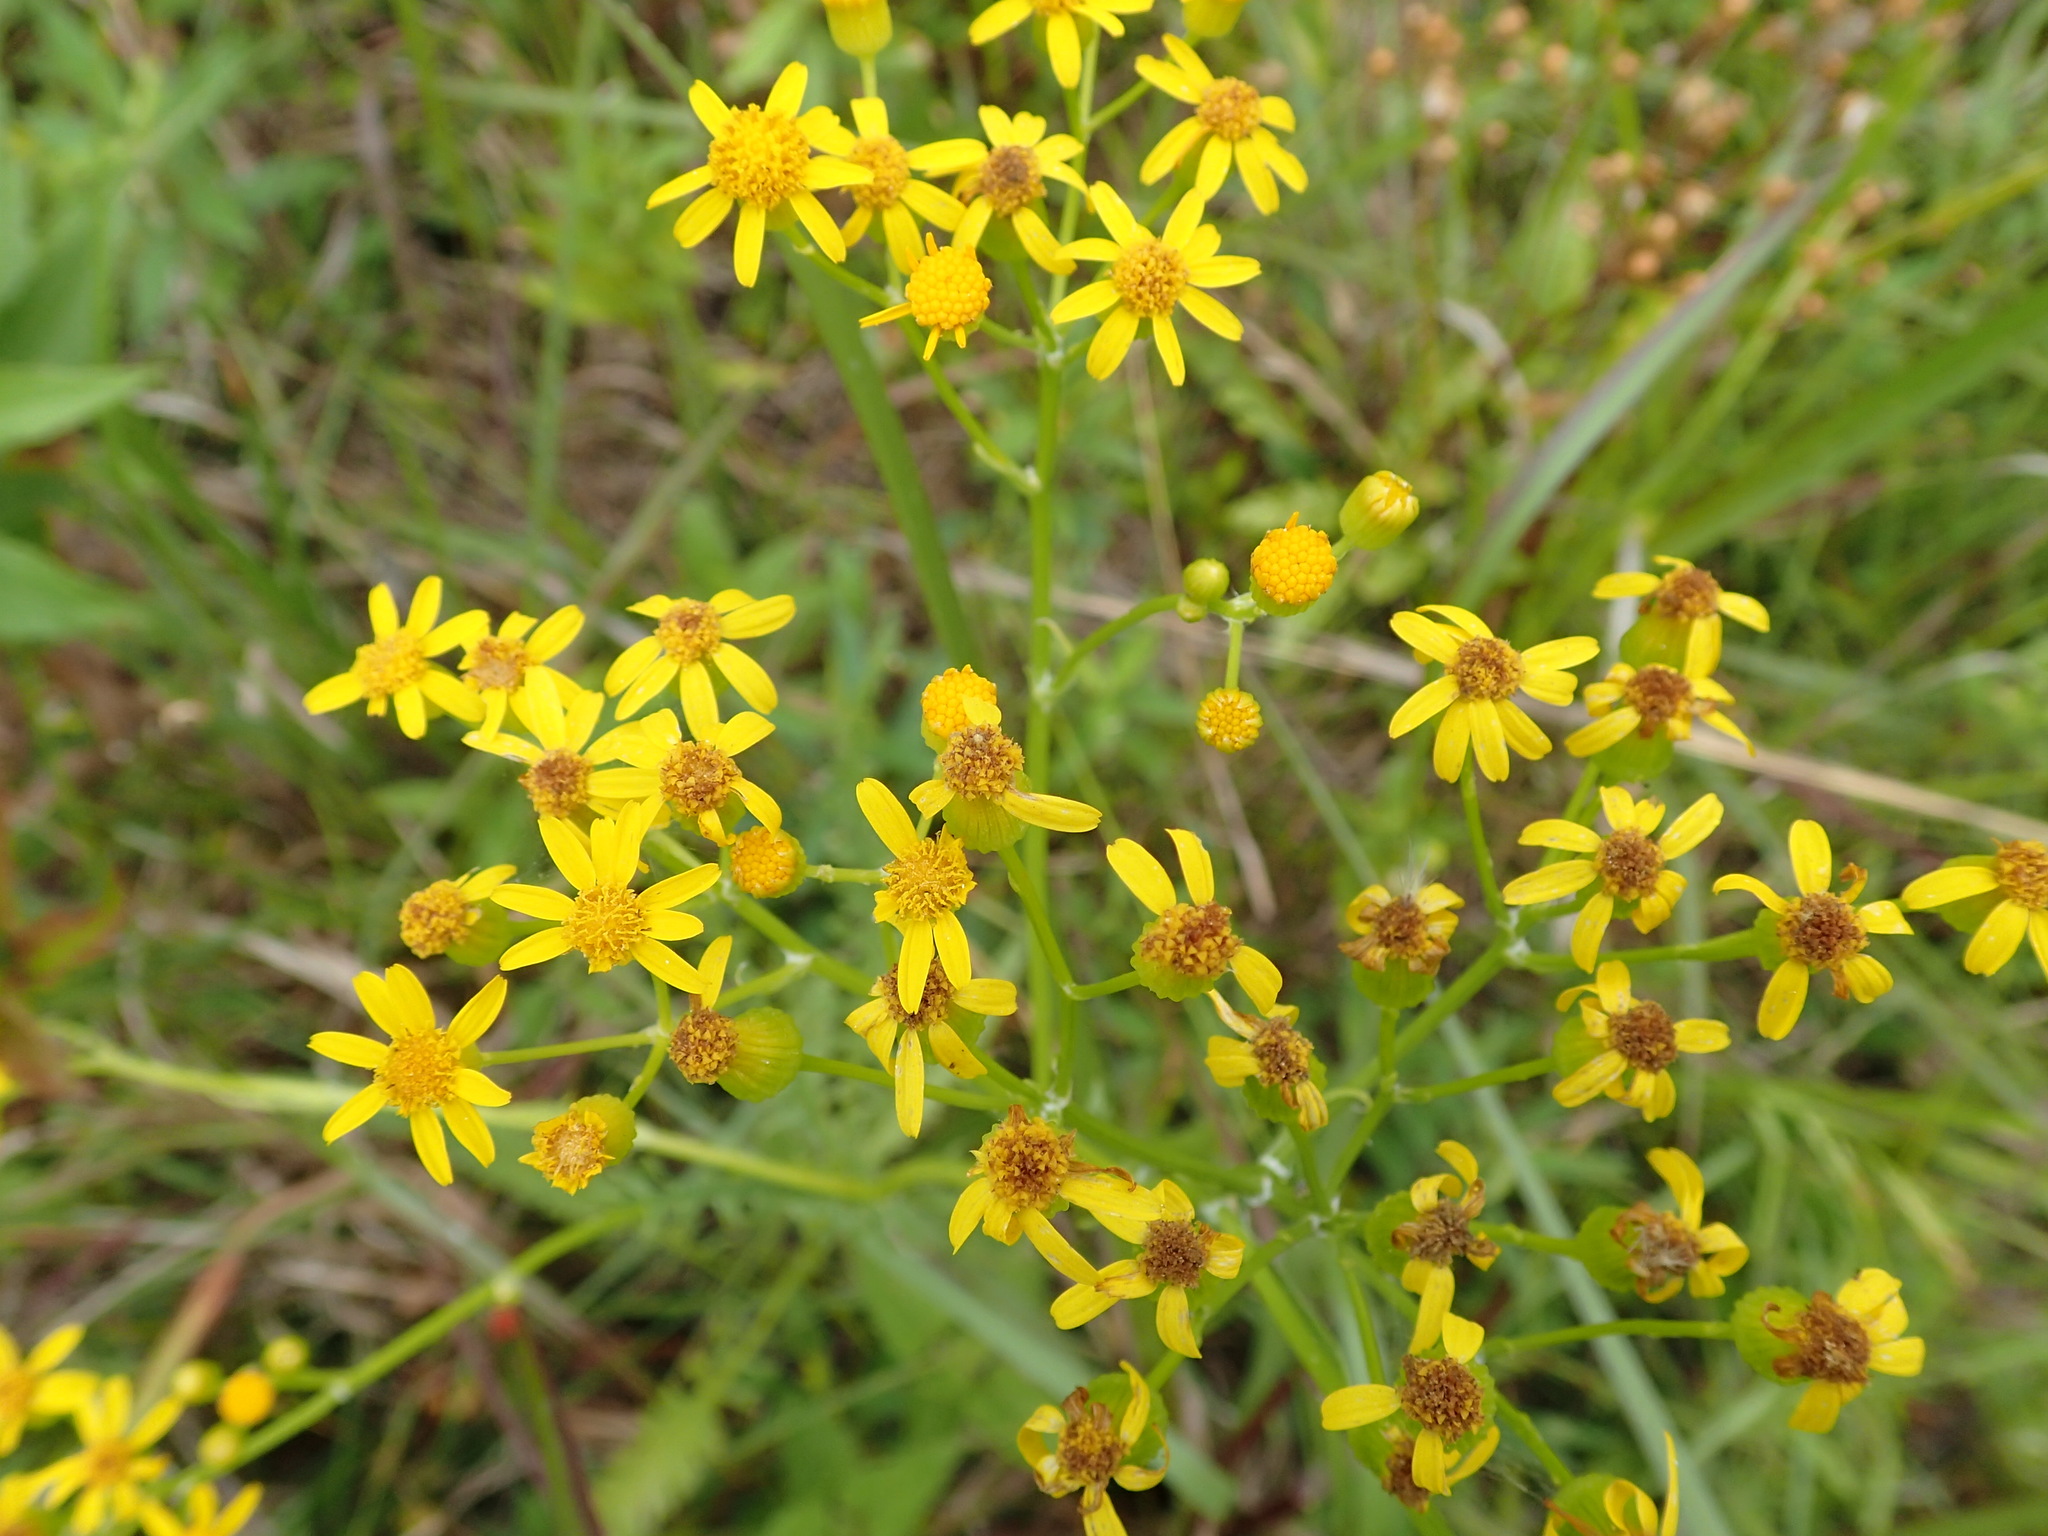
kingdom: Plantae
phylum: Tracheophyta
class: Magnoliopsida
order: Asterales
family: Asteraceae
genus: Packera
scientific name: Packera anonyma
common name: Small ragwort
